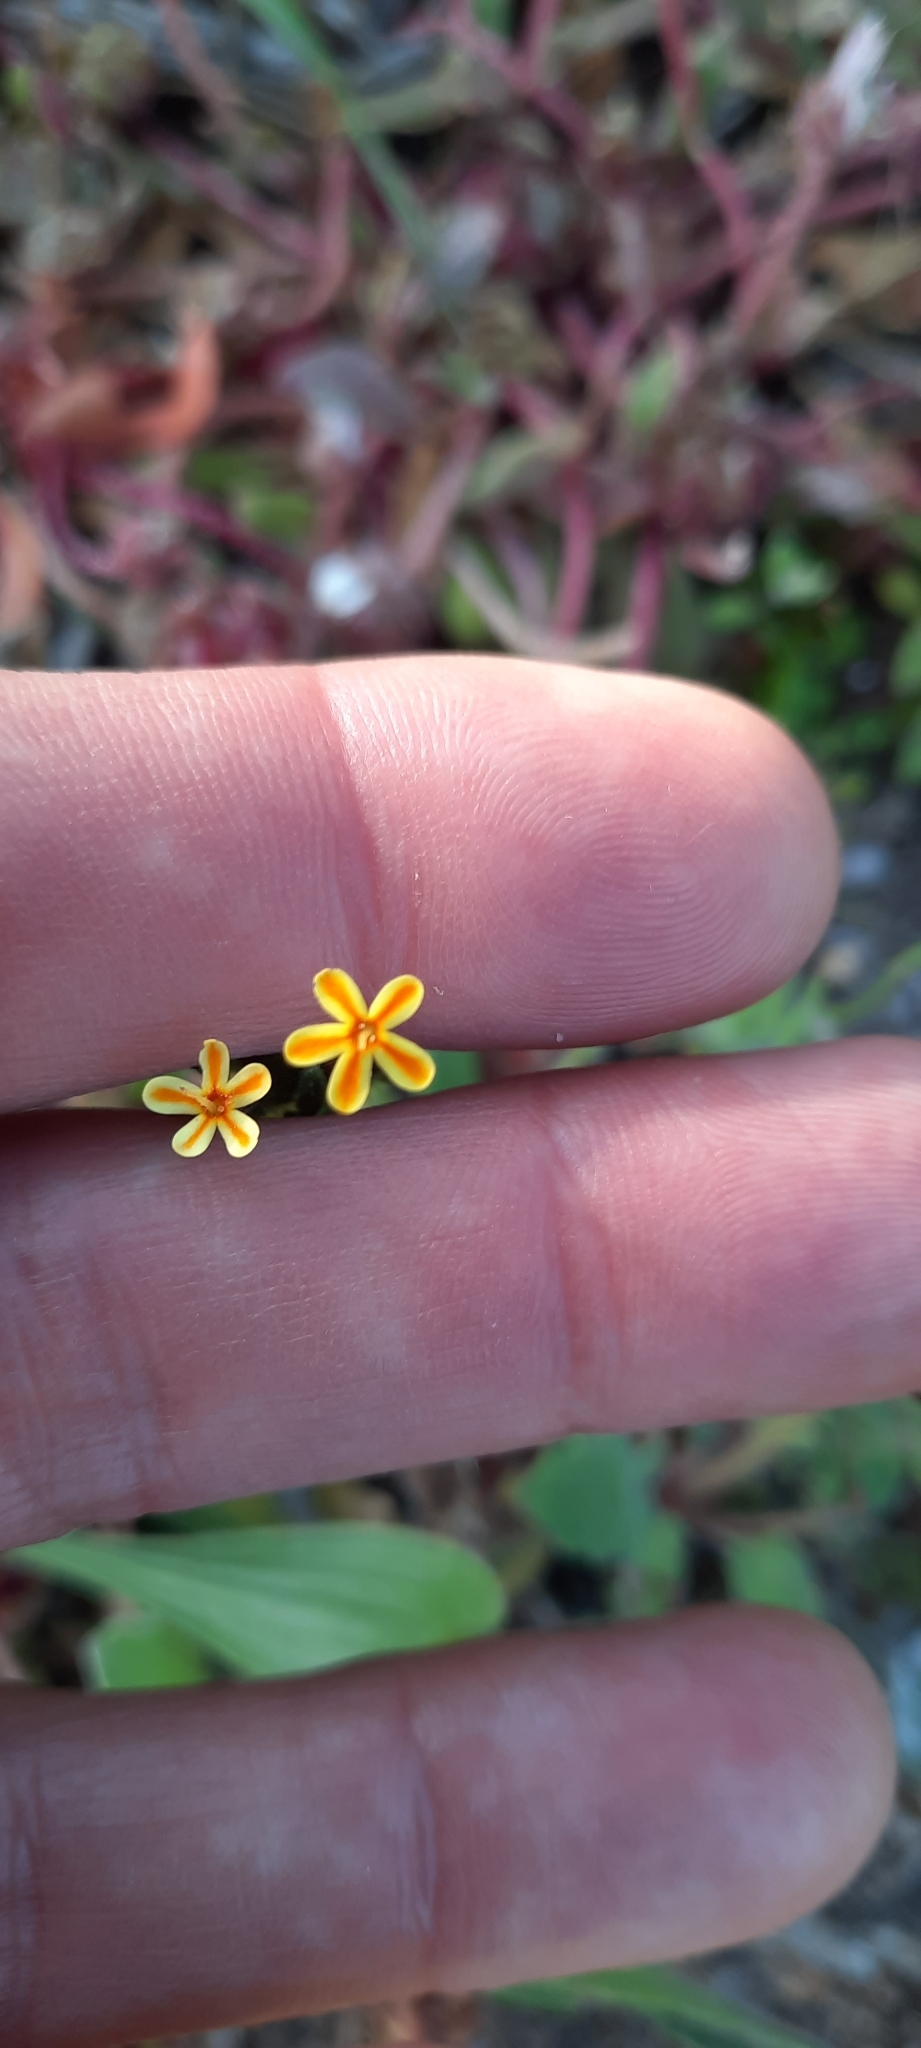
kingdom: Plantae
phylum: Tracheophyta
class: Magnoliopsida
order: Lamiales
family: Scrophulariaceae
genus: Zaluzianskya
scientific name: Zaluzianskya divaricata
